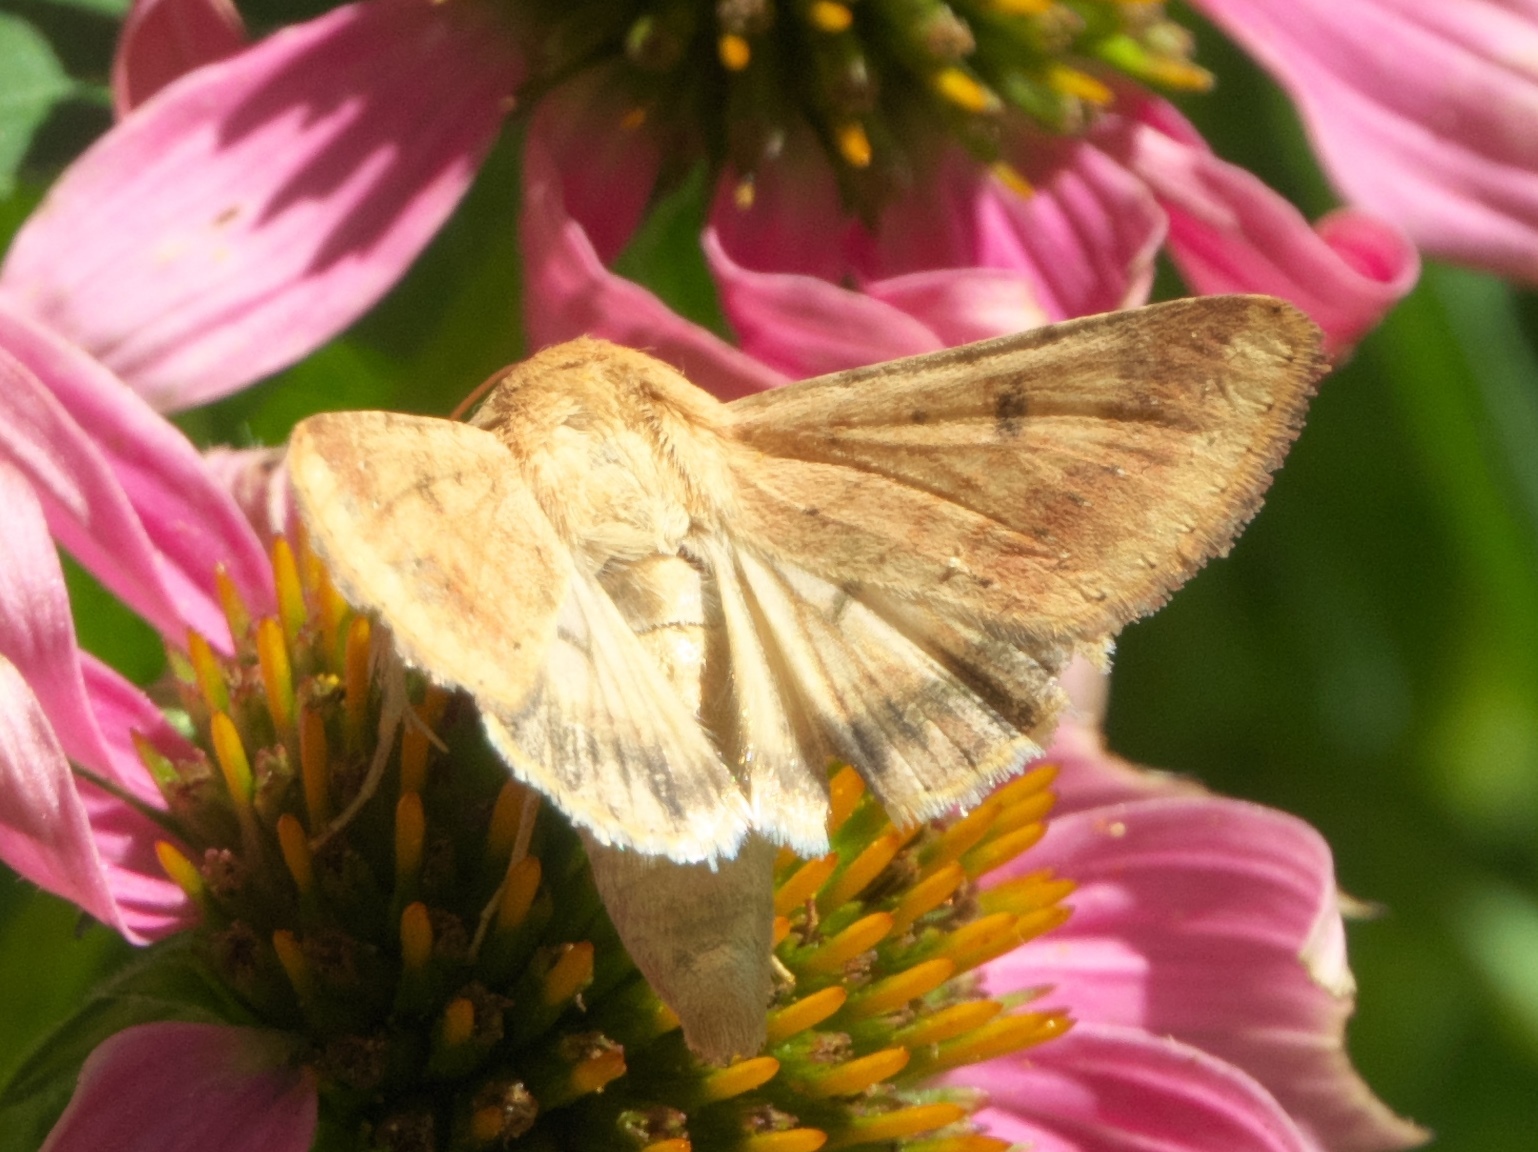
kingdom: Animalia
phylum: Arthropoda
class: Insecta
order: Lepidoptera
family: Noctuidae
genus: Helicoverpa
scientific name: Helicoverpa zea
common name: Bollworm
